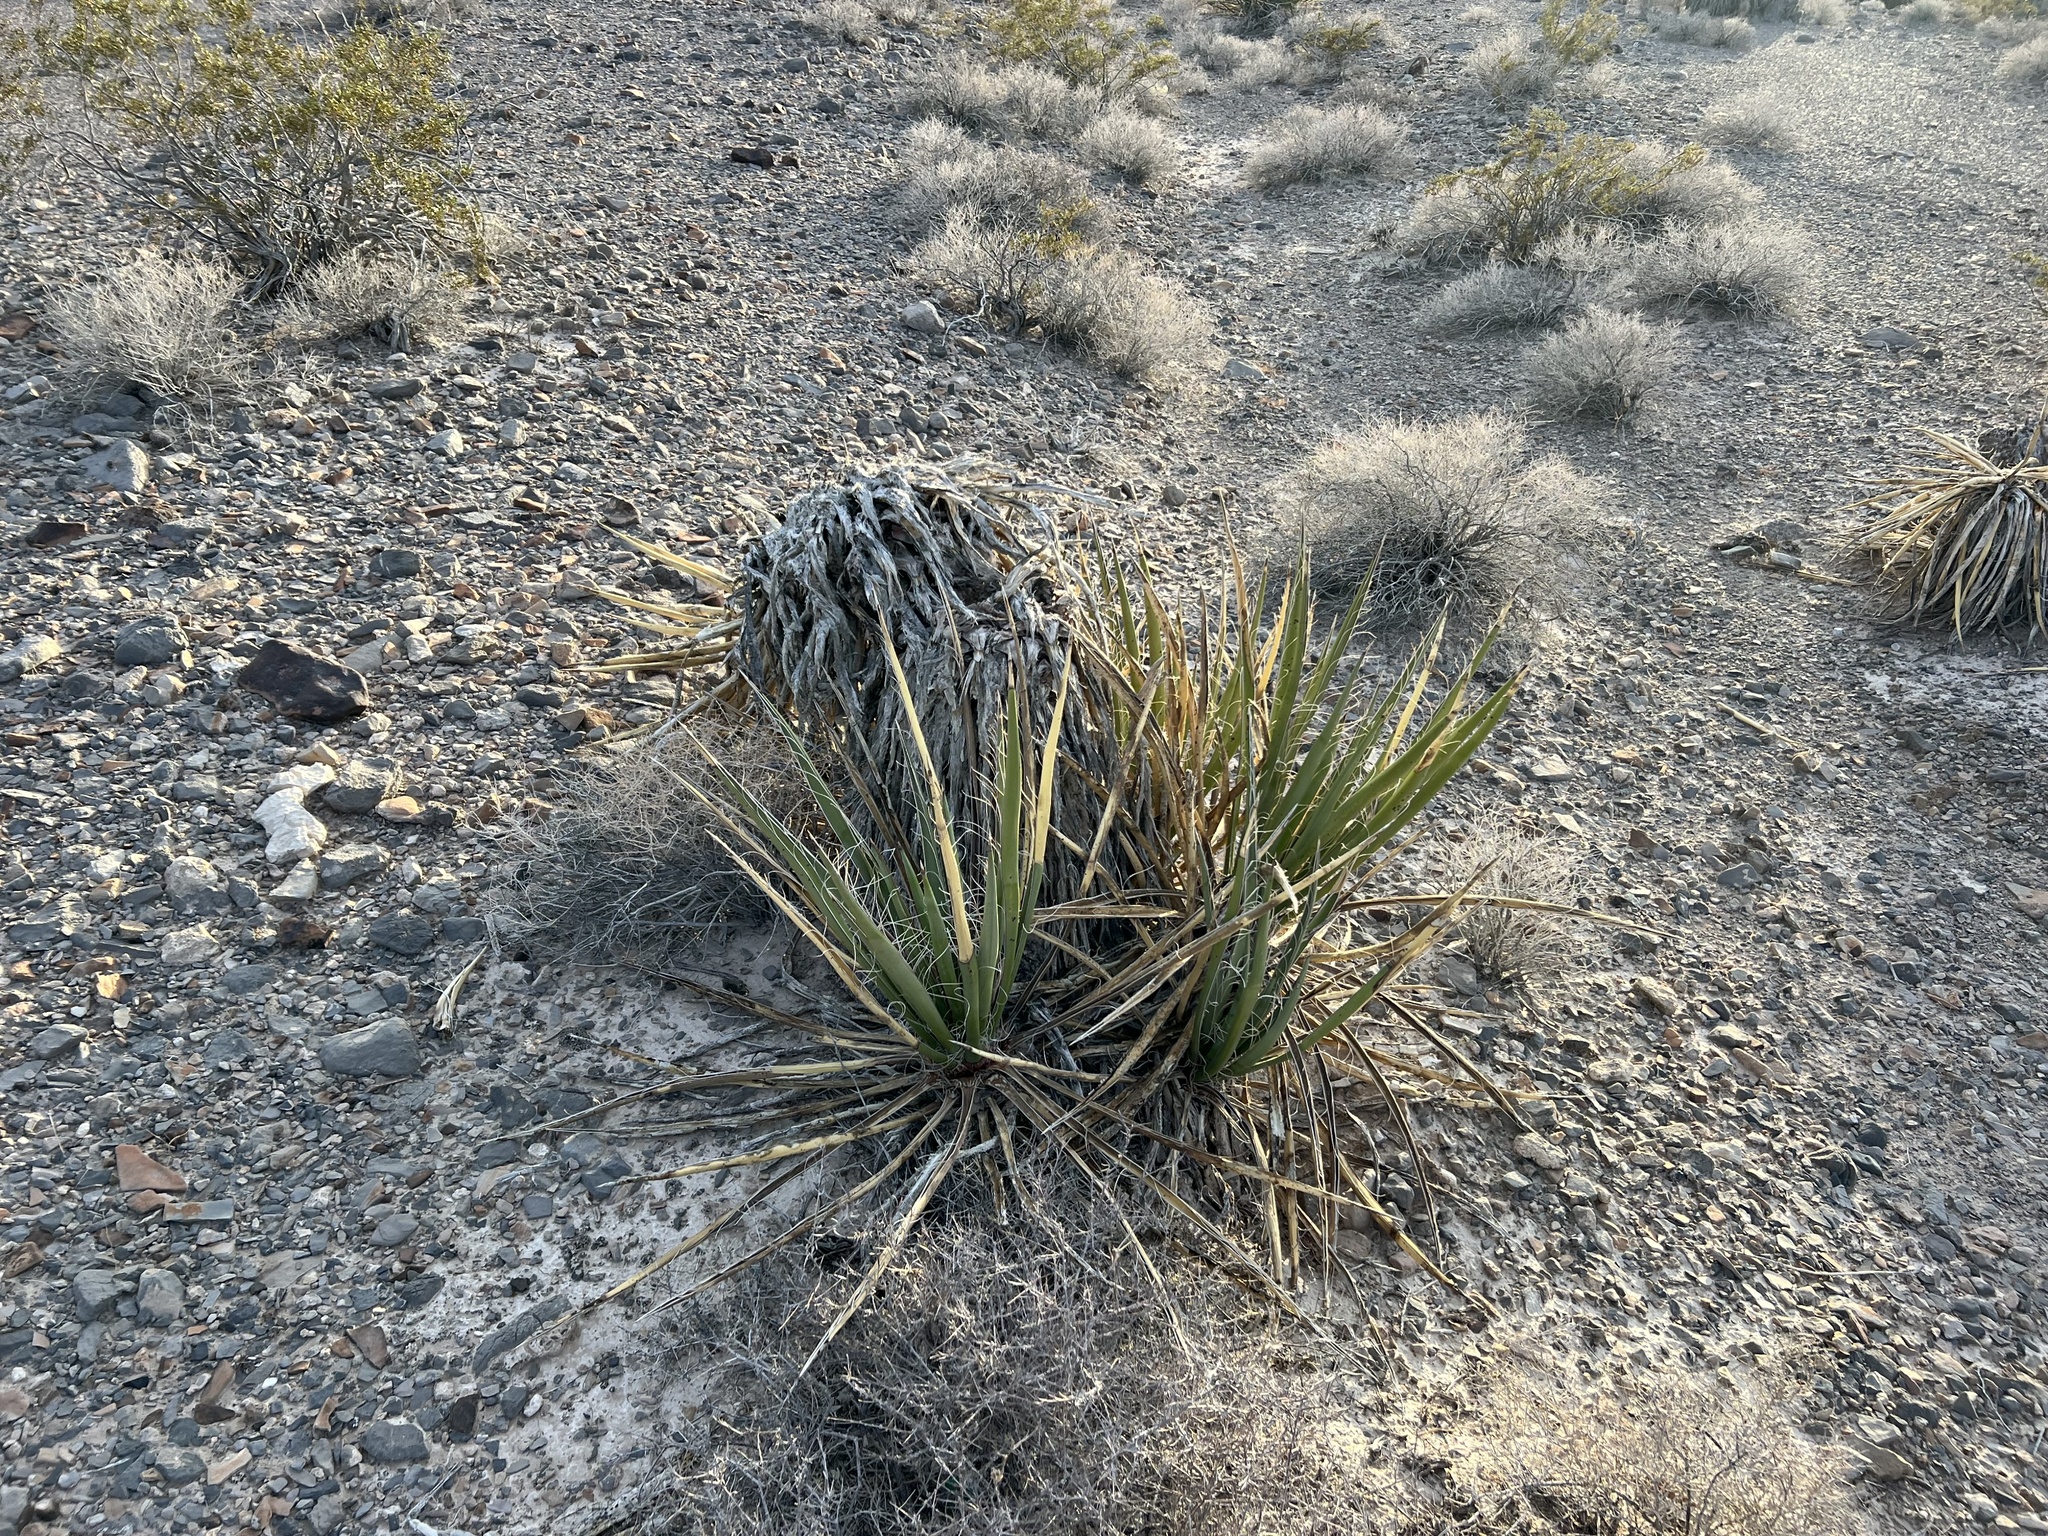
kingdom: Plantae
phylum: Tracheophyta
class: Liliopsida
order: Asparagales
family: Asparagaceae
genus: Yucca
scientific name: Yucca schidigera
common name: Mojave yucca
